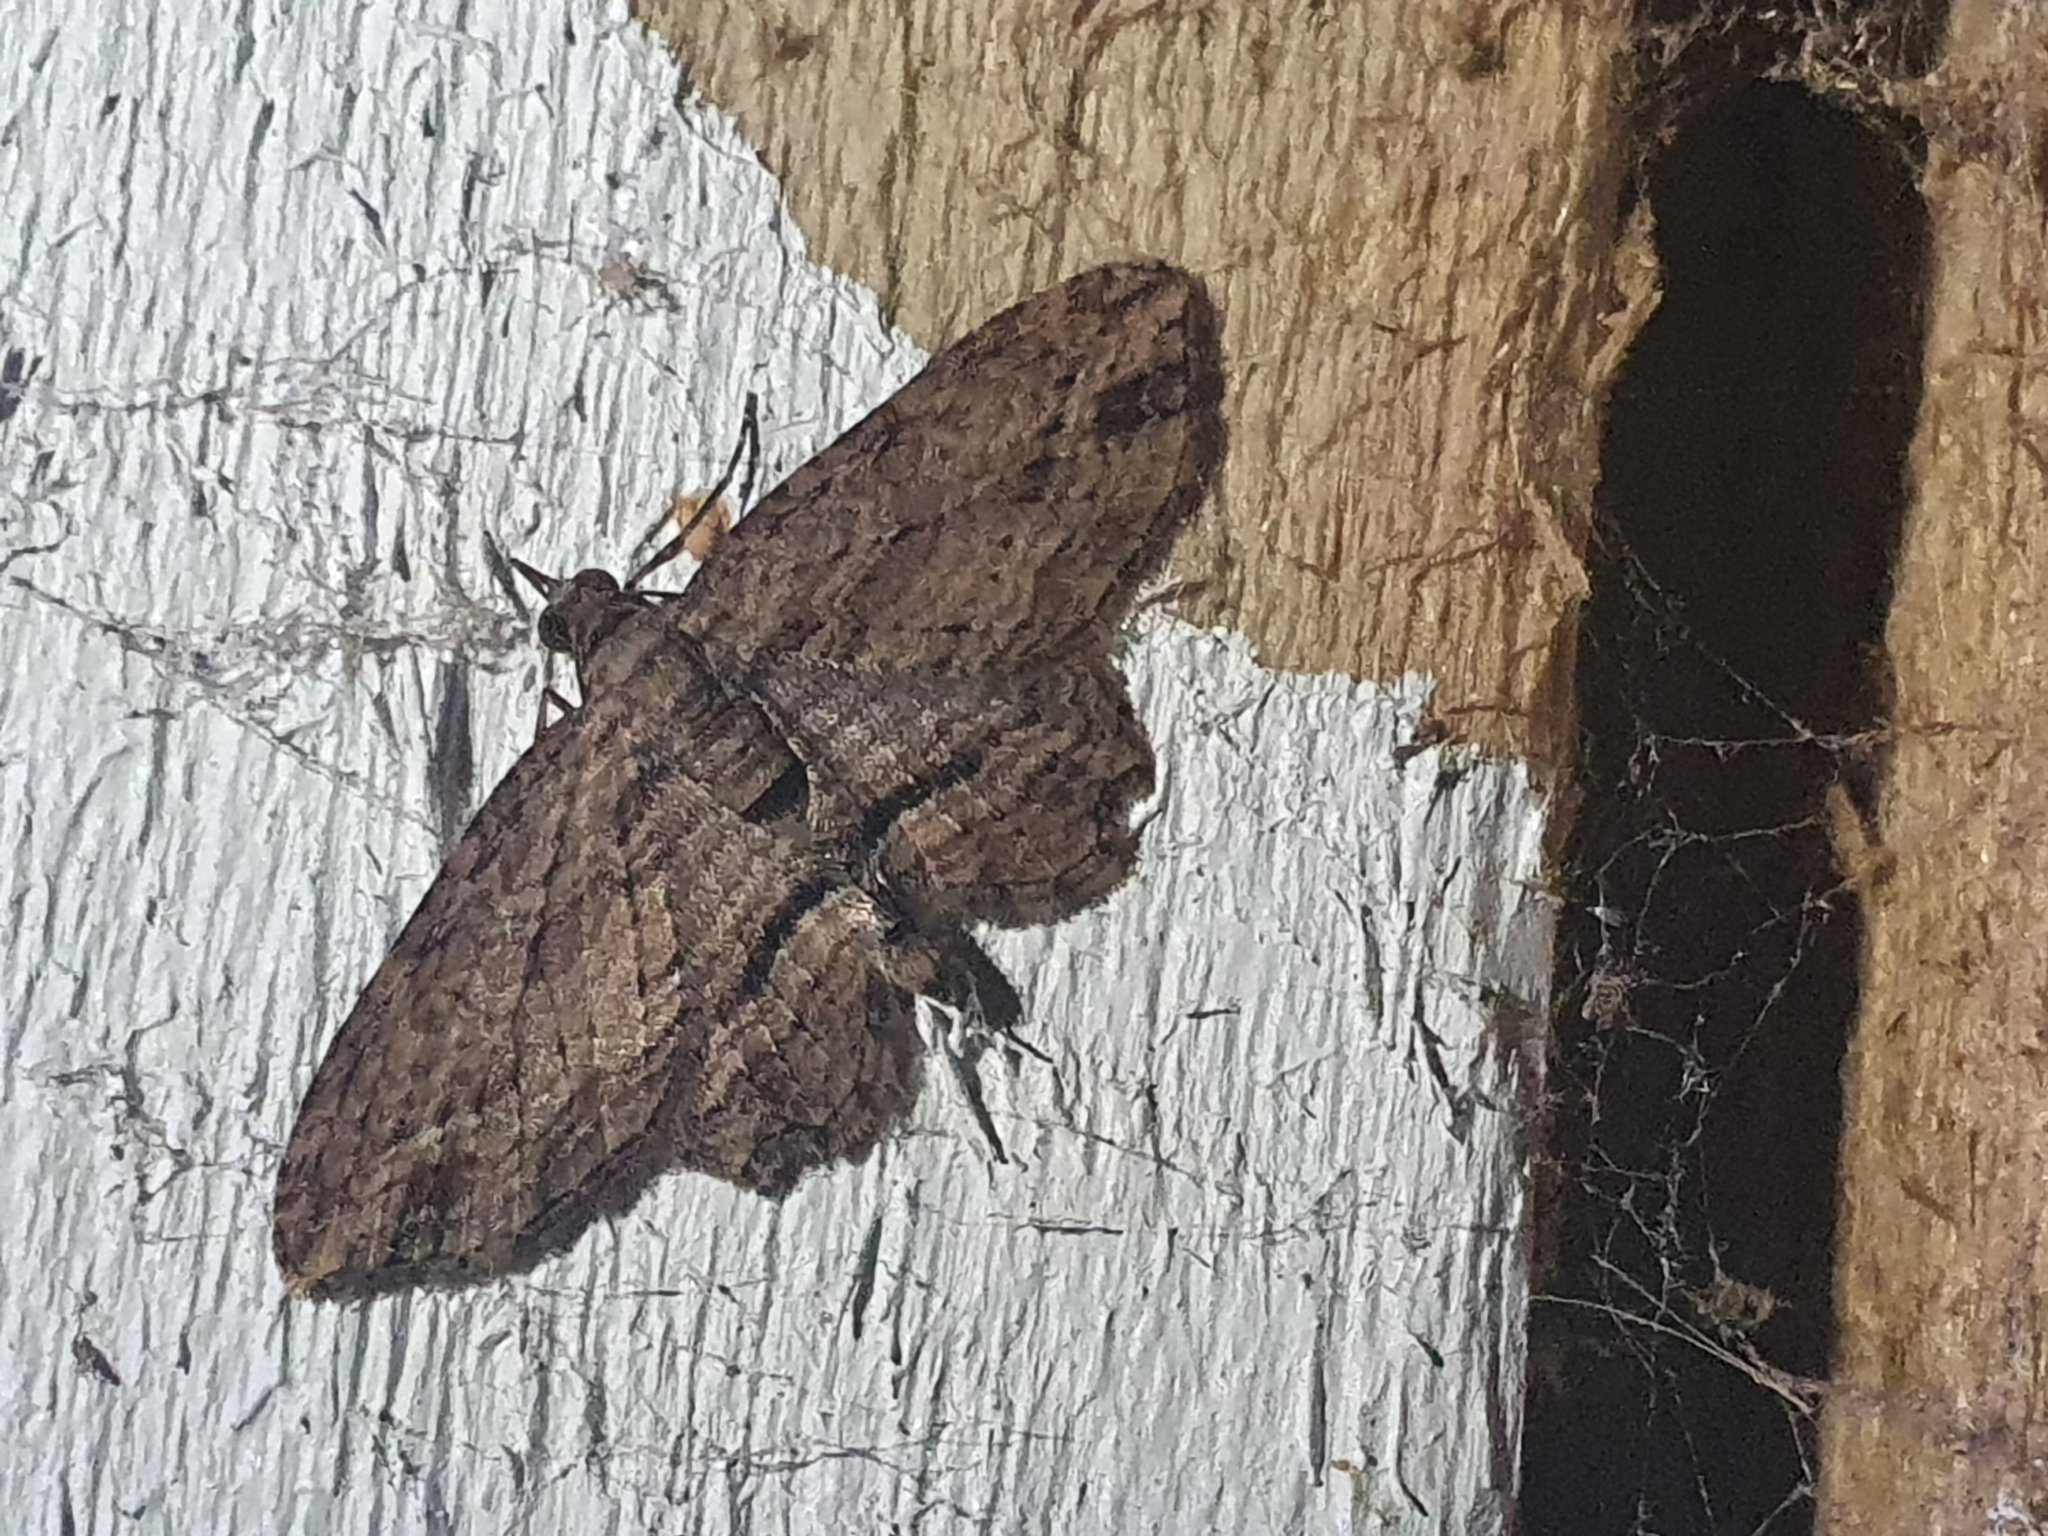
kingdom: Animalia
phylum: Arthropoda
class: Insecta
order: Lepidoptera
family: Geometridae
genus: Chloroclystis
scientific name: Chloroclystis filata
